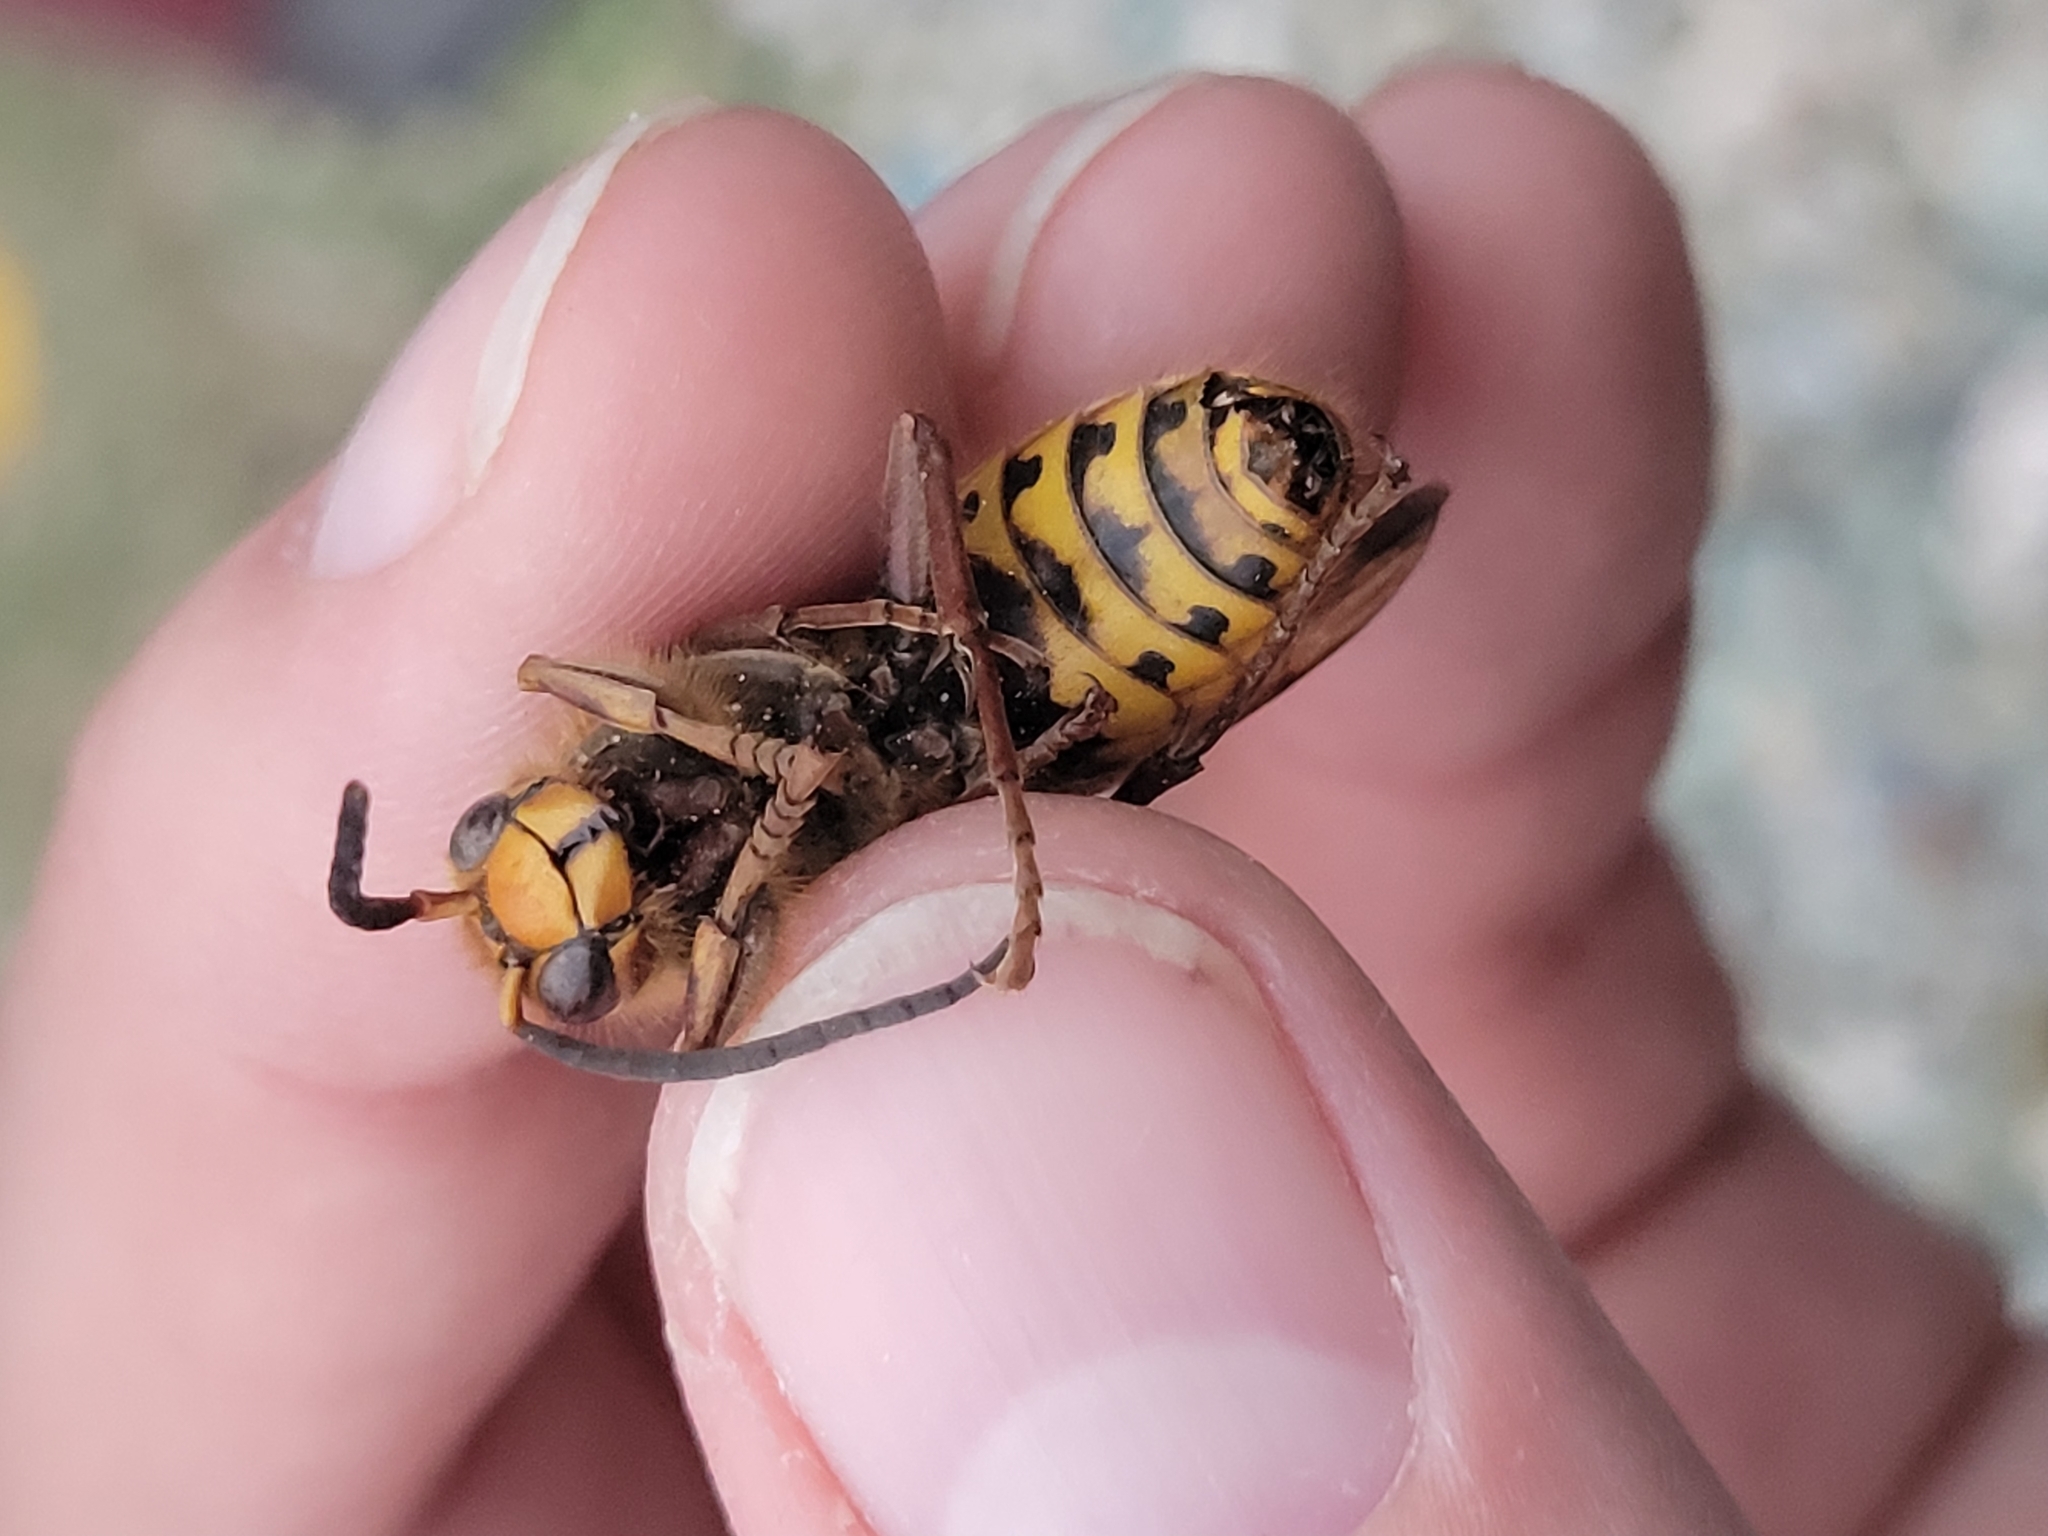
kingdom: Animalia
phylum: Arthropoda
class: Insecta
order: Hymenoptera
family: Vespidae
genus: Vespa
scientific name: Vespa crabro
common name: Hornet
